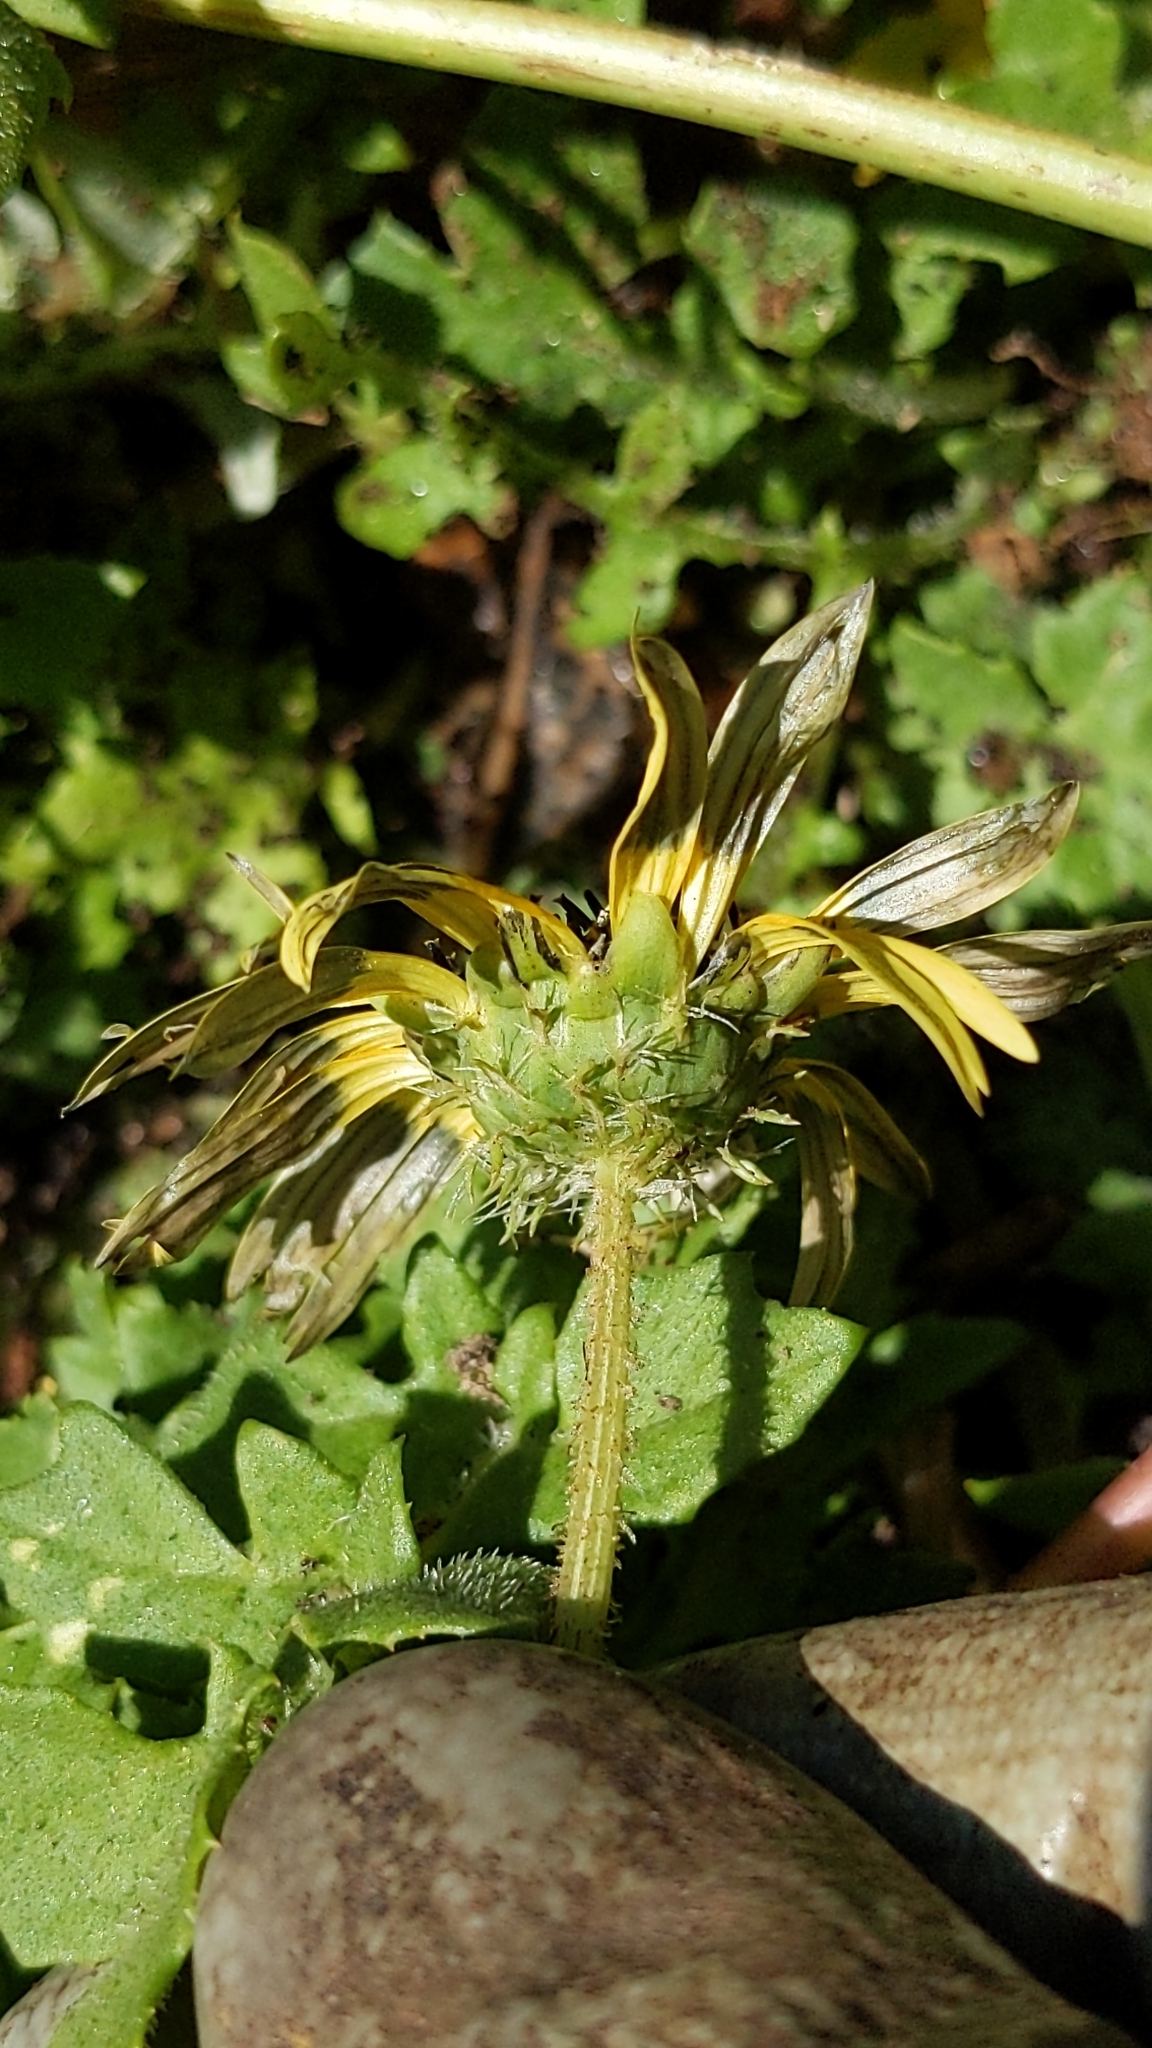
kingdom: Plantae
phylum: Tracheophyta
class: Magnoliopsida
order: Asterales
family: Asteraceae
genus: Arctotheca
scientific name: Arctotheca calendula
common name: Capeweed
